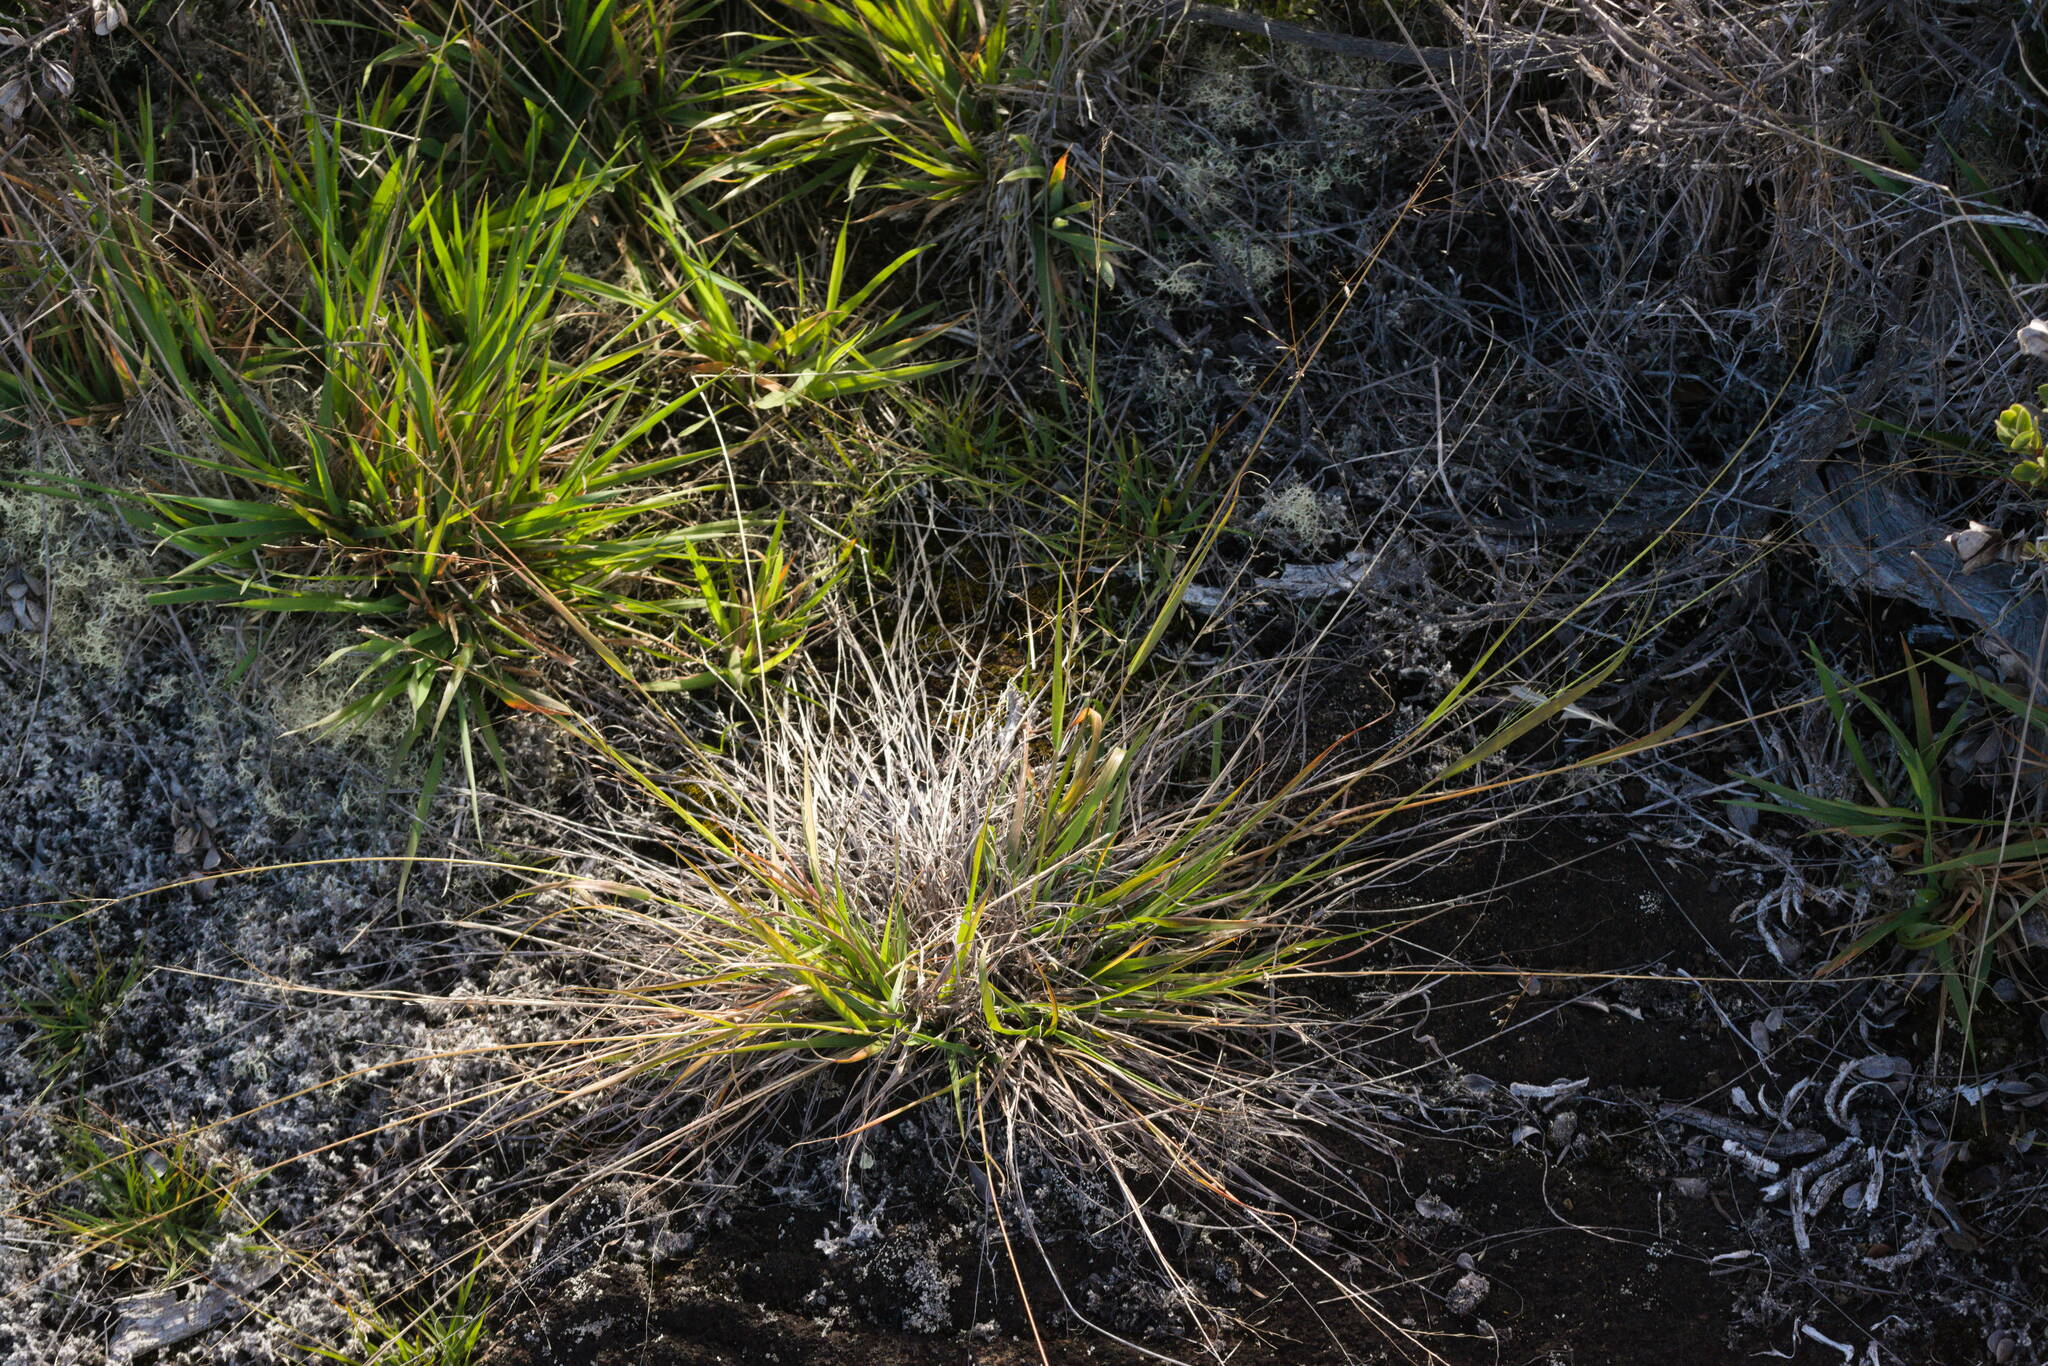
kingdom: Plantae
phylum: Tracheophyta
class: Liliopsida
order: Poales
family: Poaceae
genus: Eragrostis
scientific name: Eragrostis brownii
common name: Lovegrass
